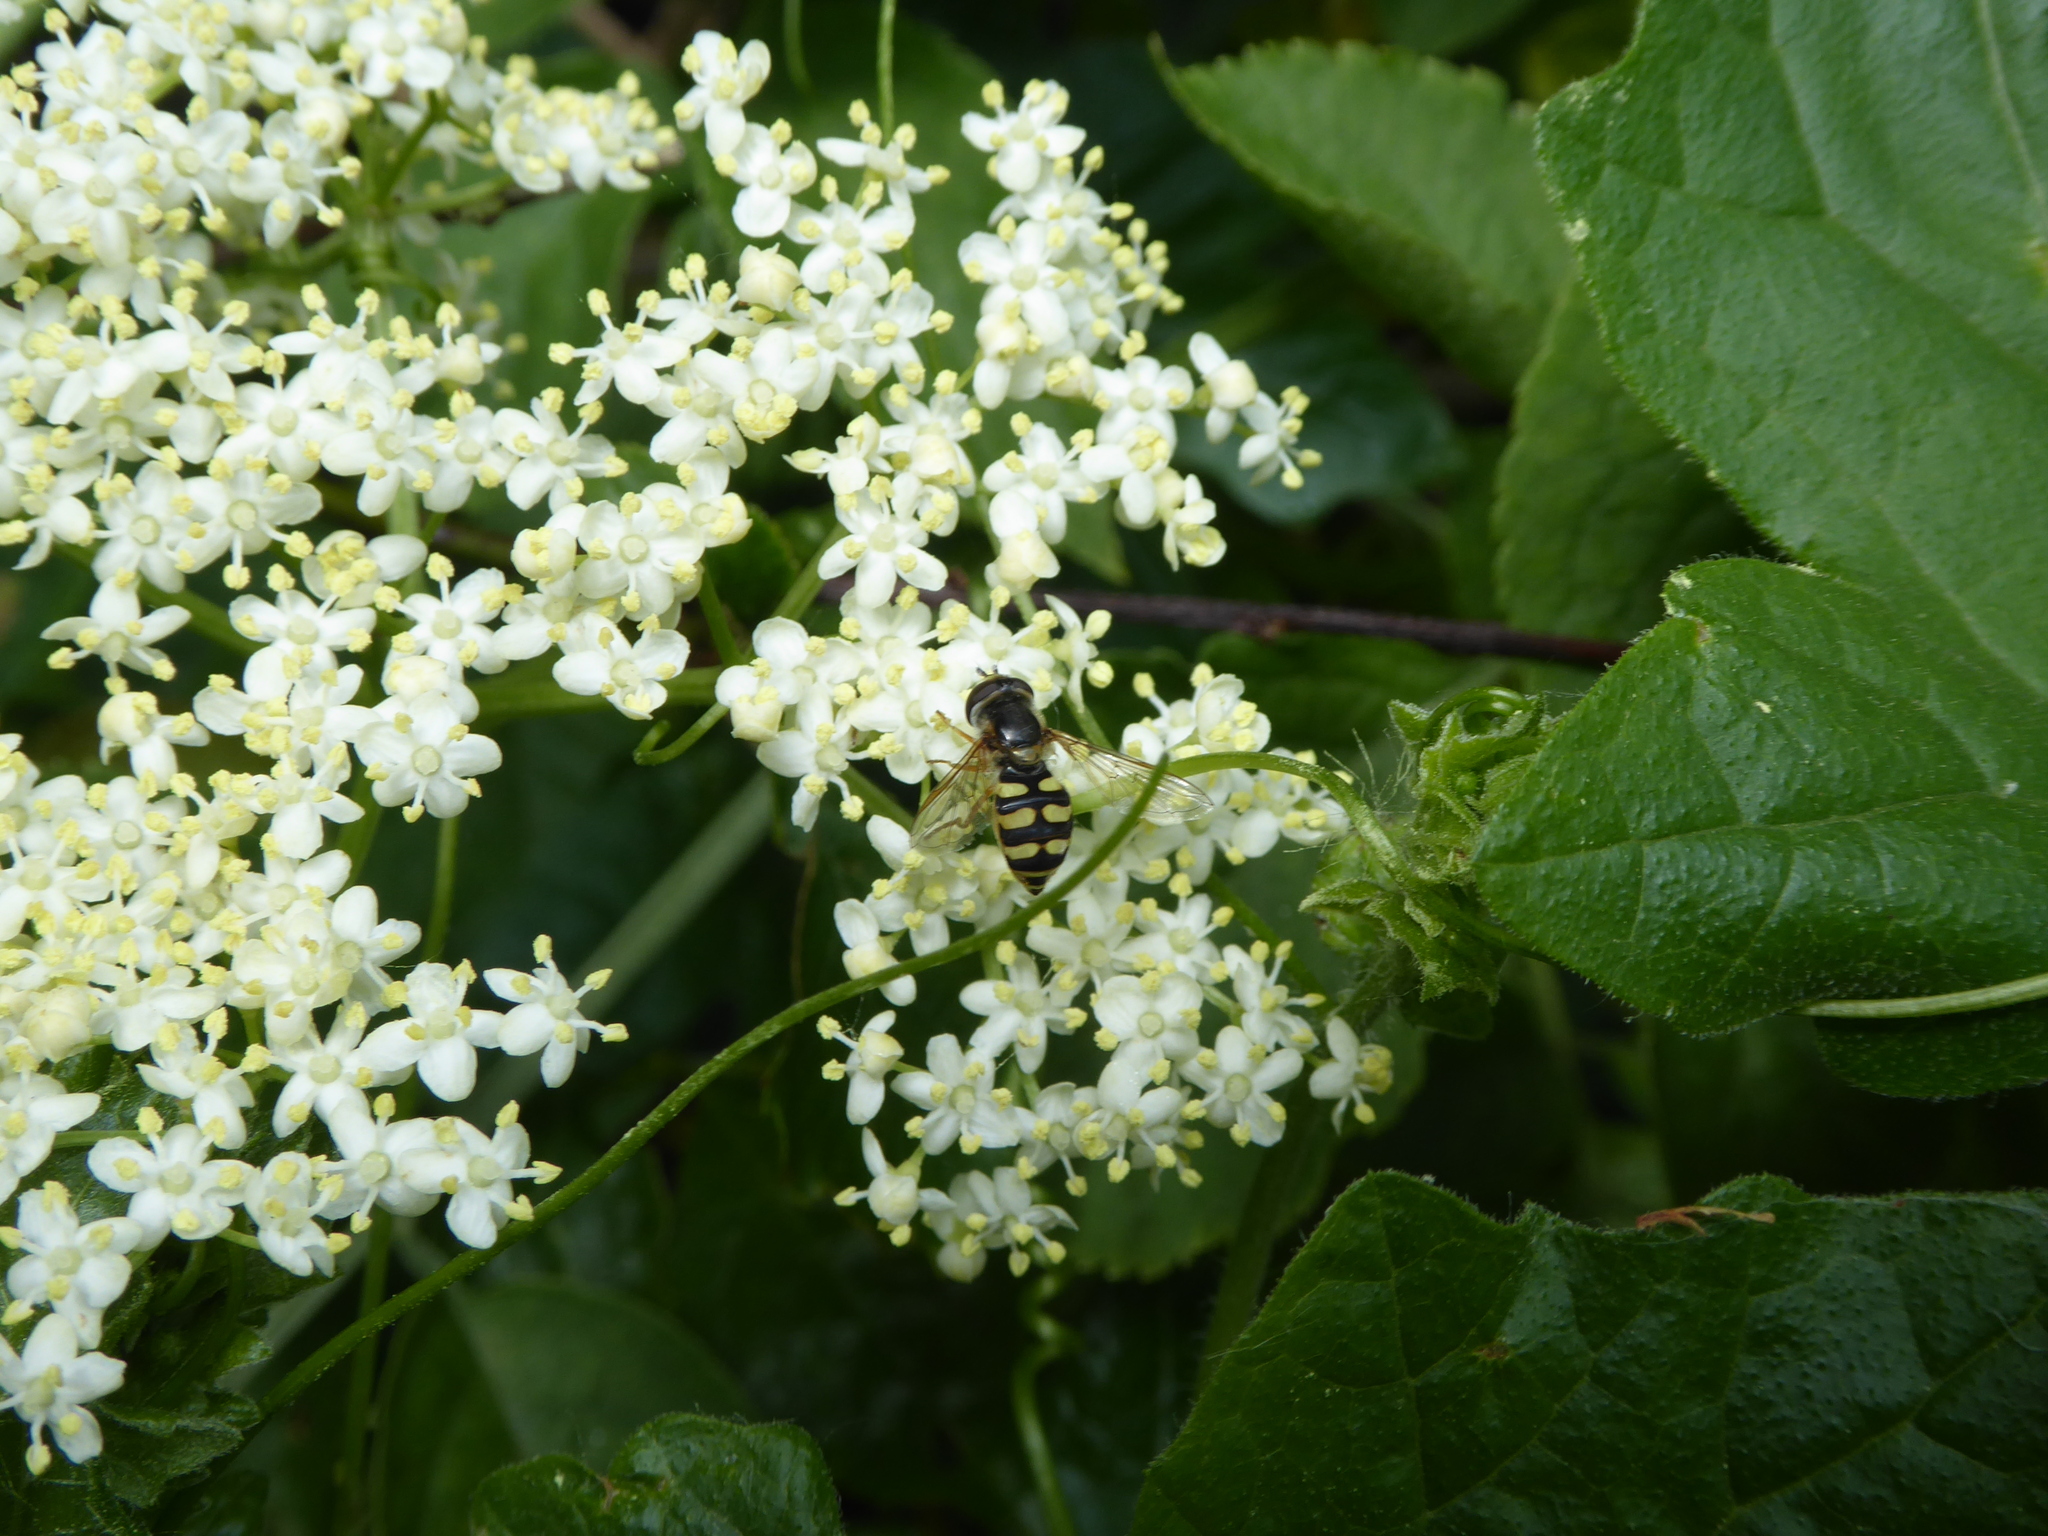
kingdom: Animalia
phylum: Arthropoda
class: Insecta
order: Diptera
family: Syrphidae
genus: Eupeodes
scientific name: Eupeodes corollae
